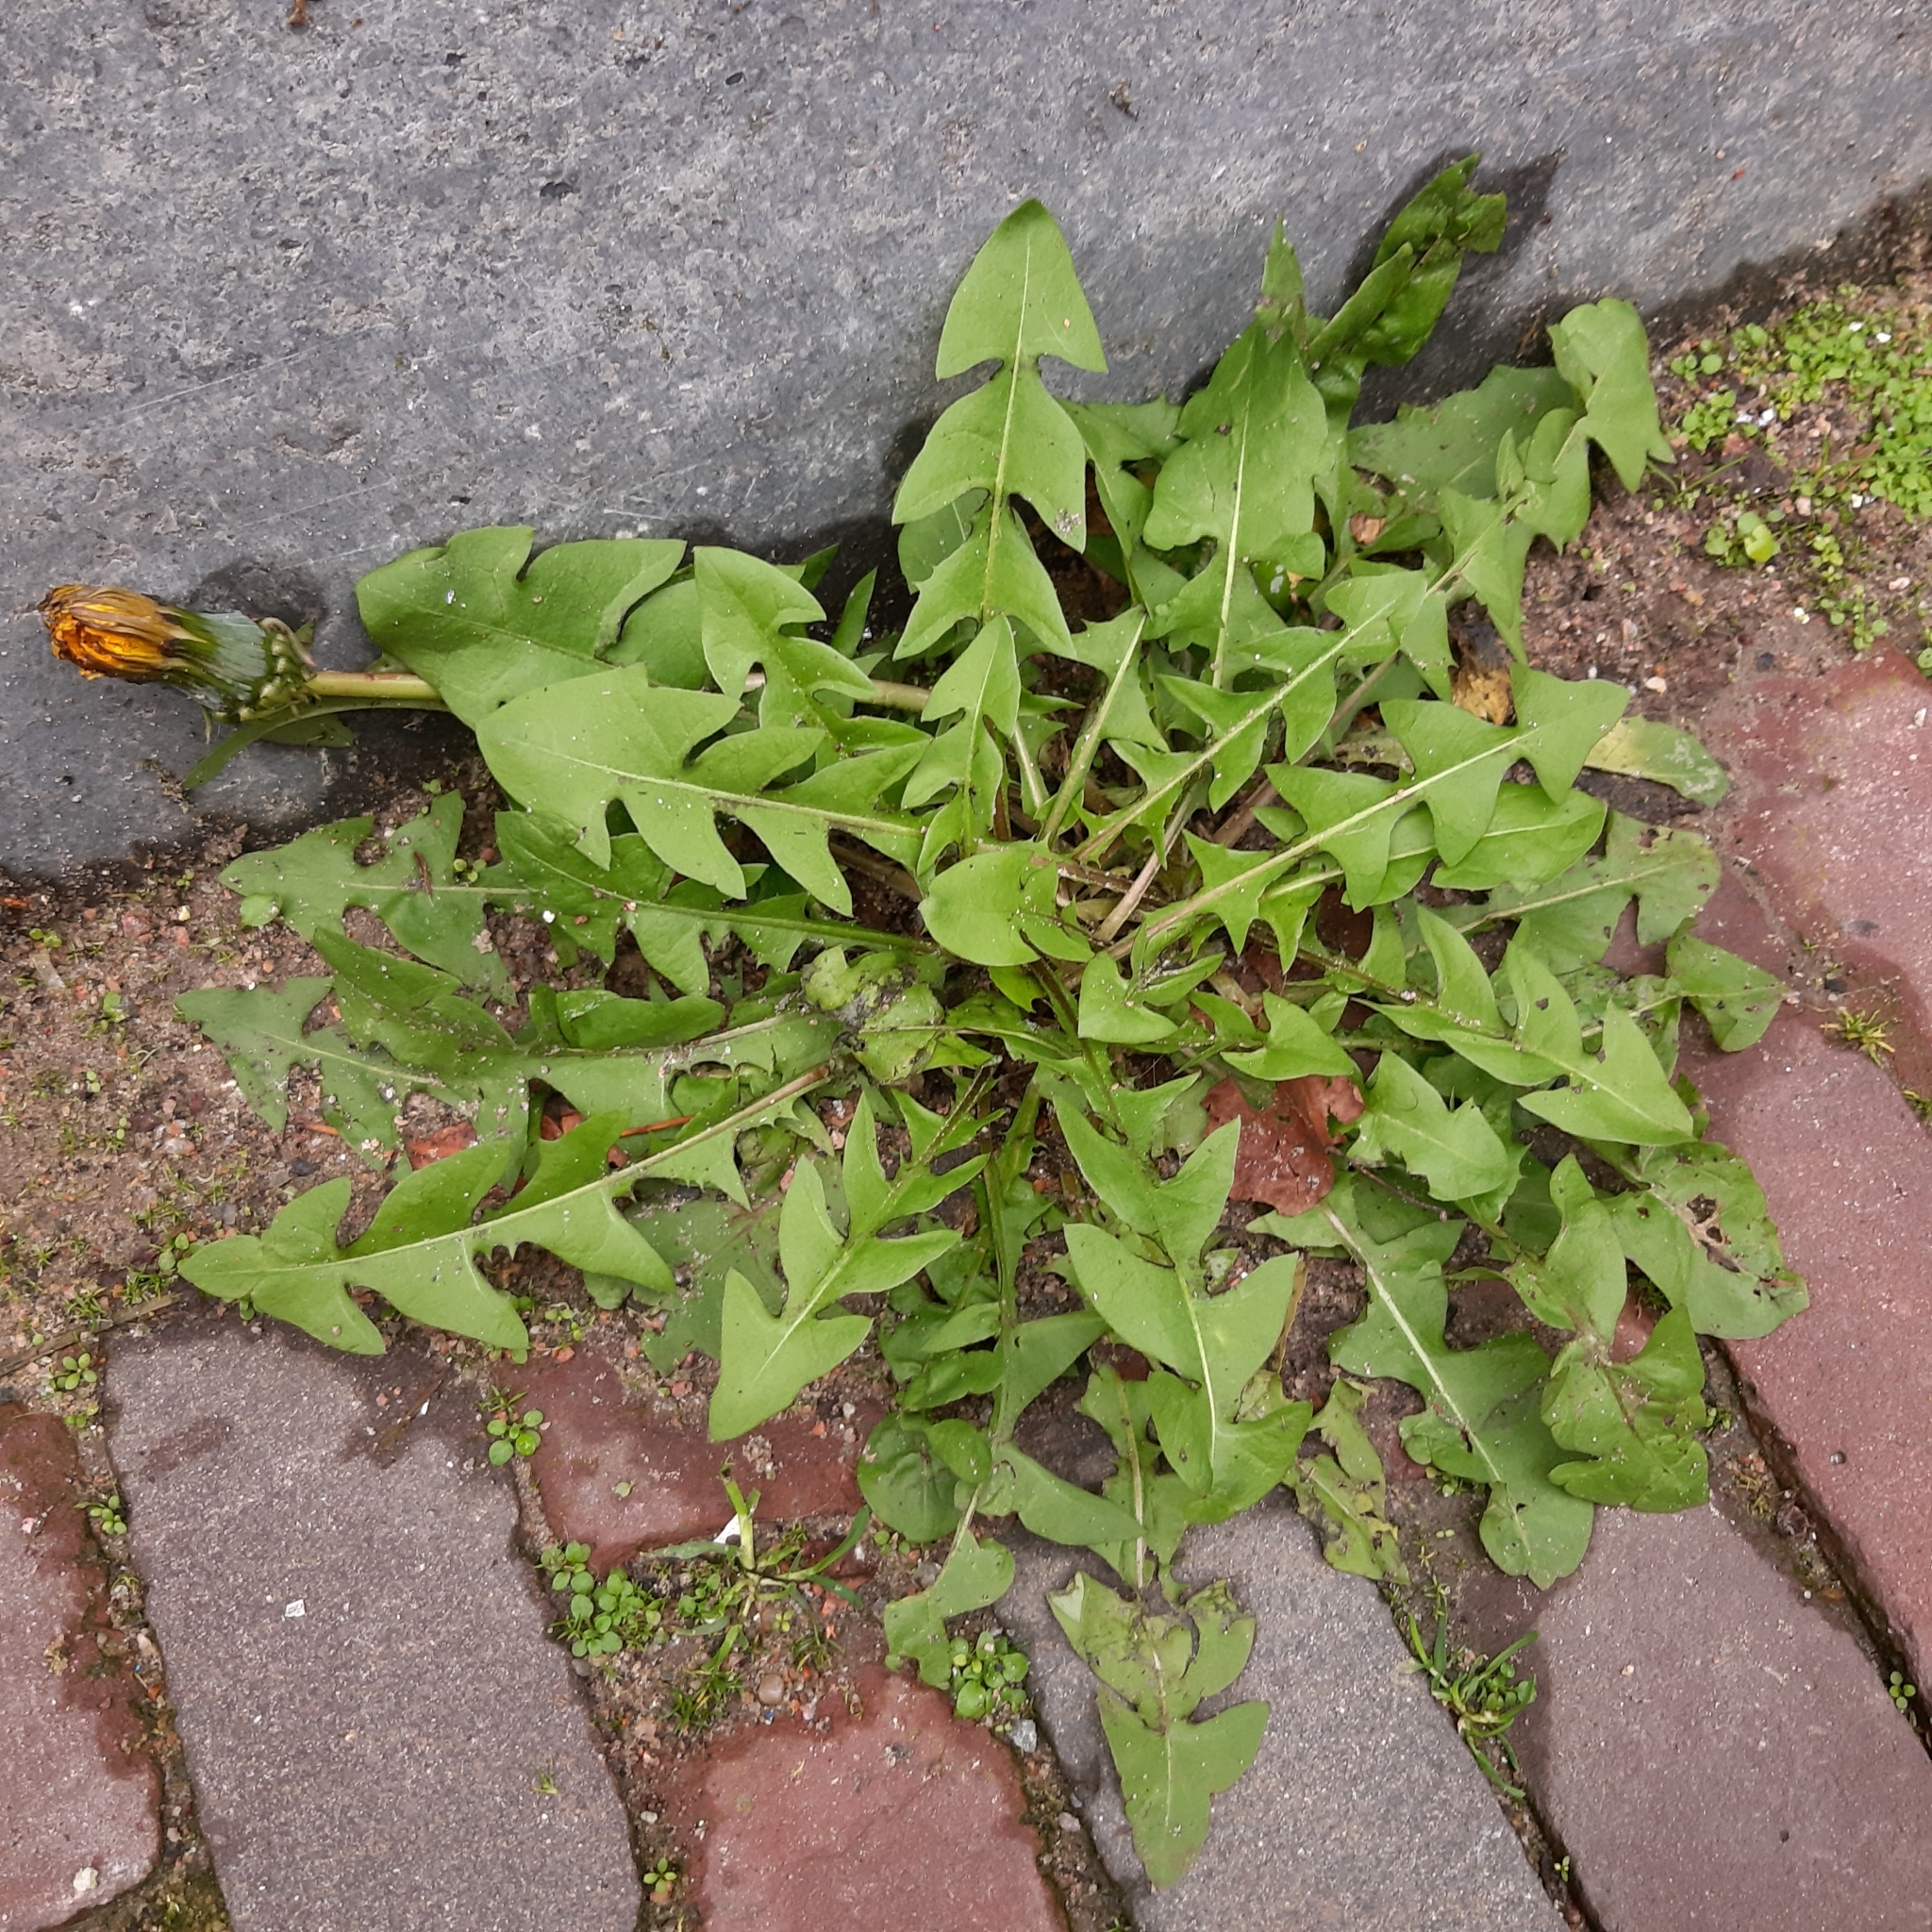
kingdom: Plantae
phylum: Tracheophyta
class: Magnoliopsida
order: Asterales
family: Asteraceae
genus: Taraxacum
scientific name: Taraxacum officinale
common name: Common dandelion
